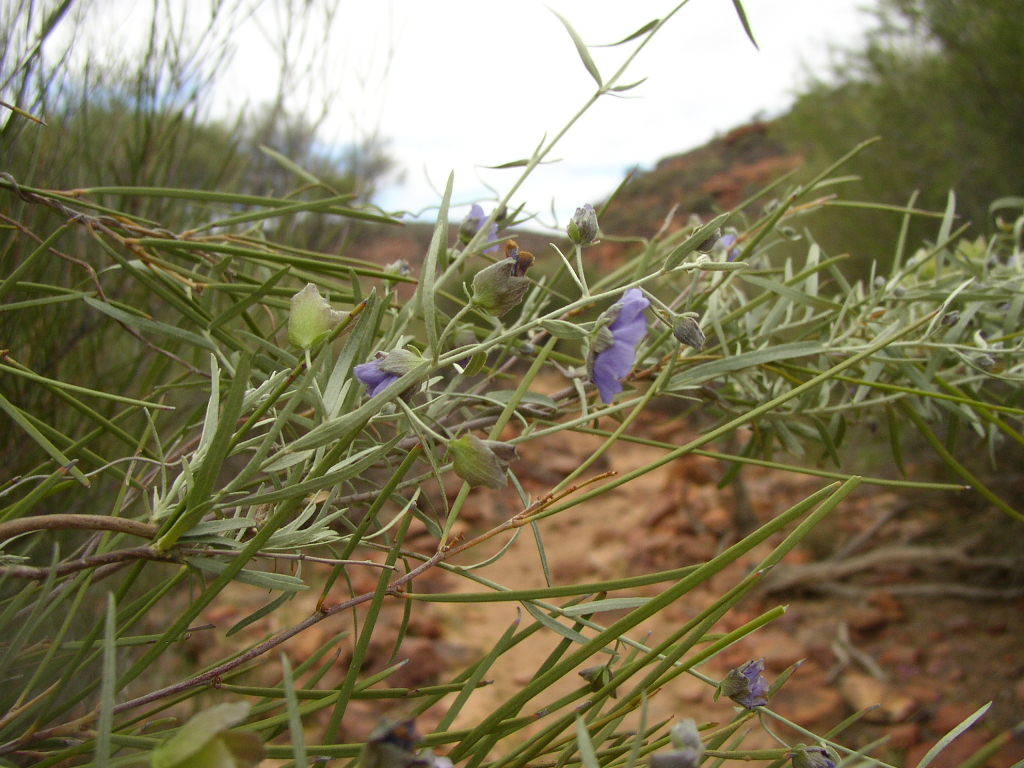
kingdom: Plantae
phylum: Tracheophyta
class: Magnoliopsida
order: Solanales
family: Convolvulaceae
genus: Duperreya
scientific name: Duperreya sericea
